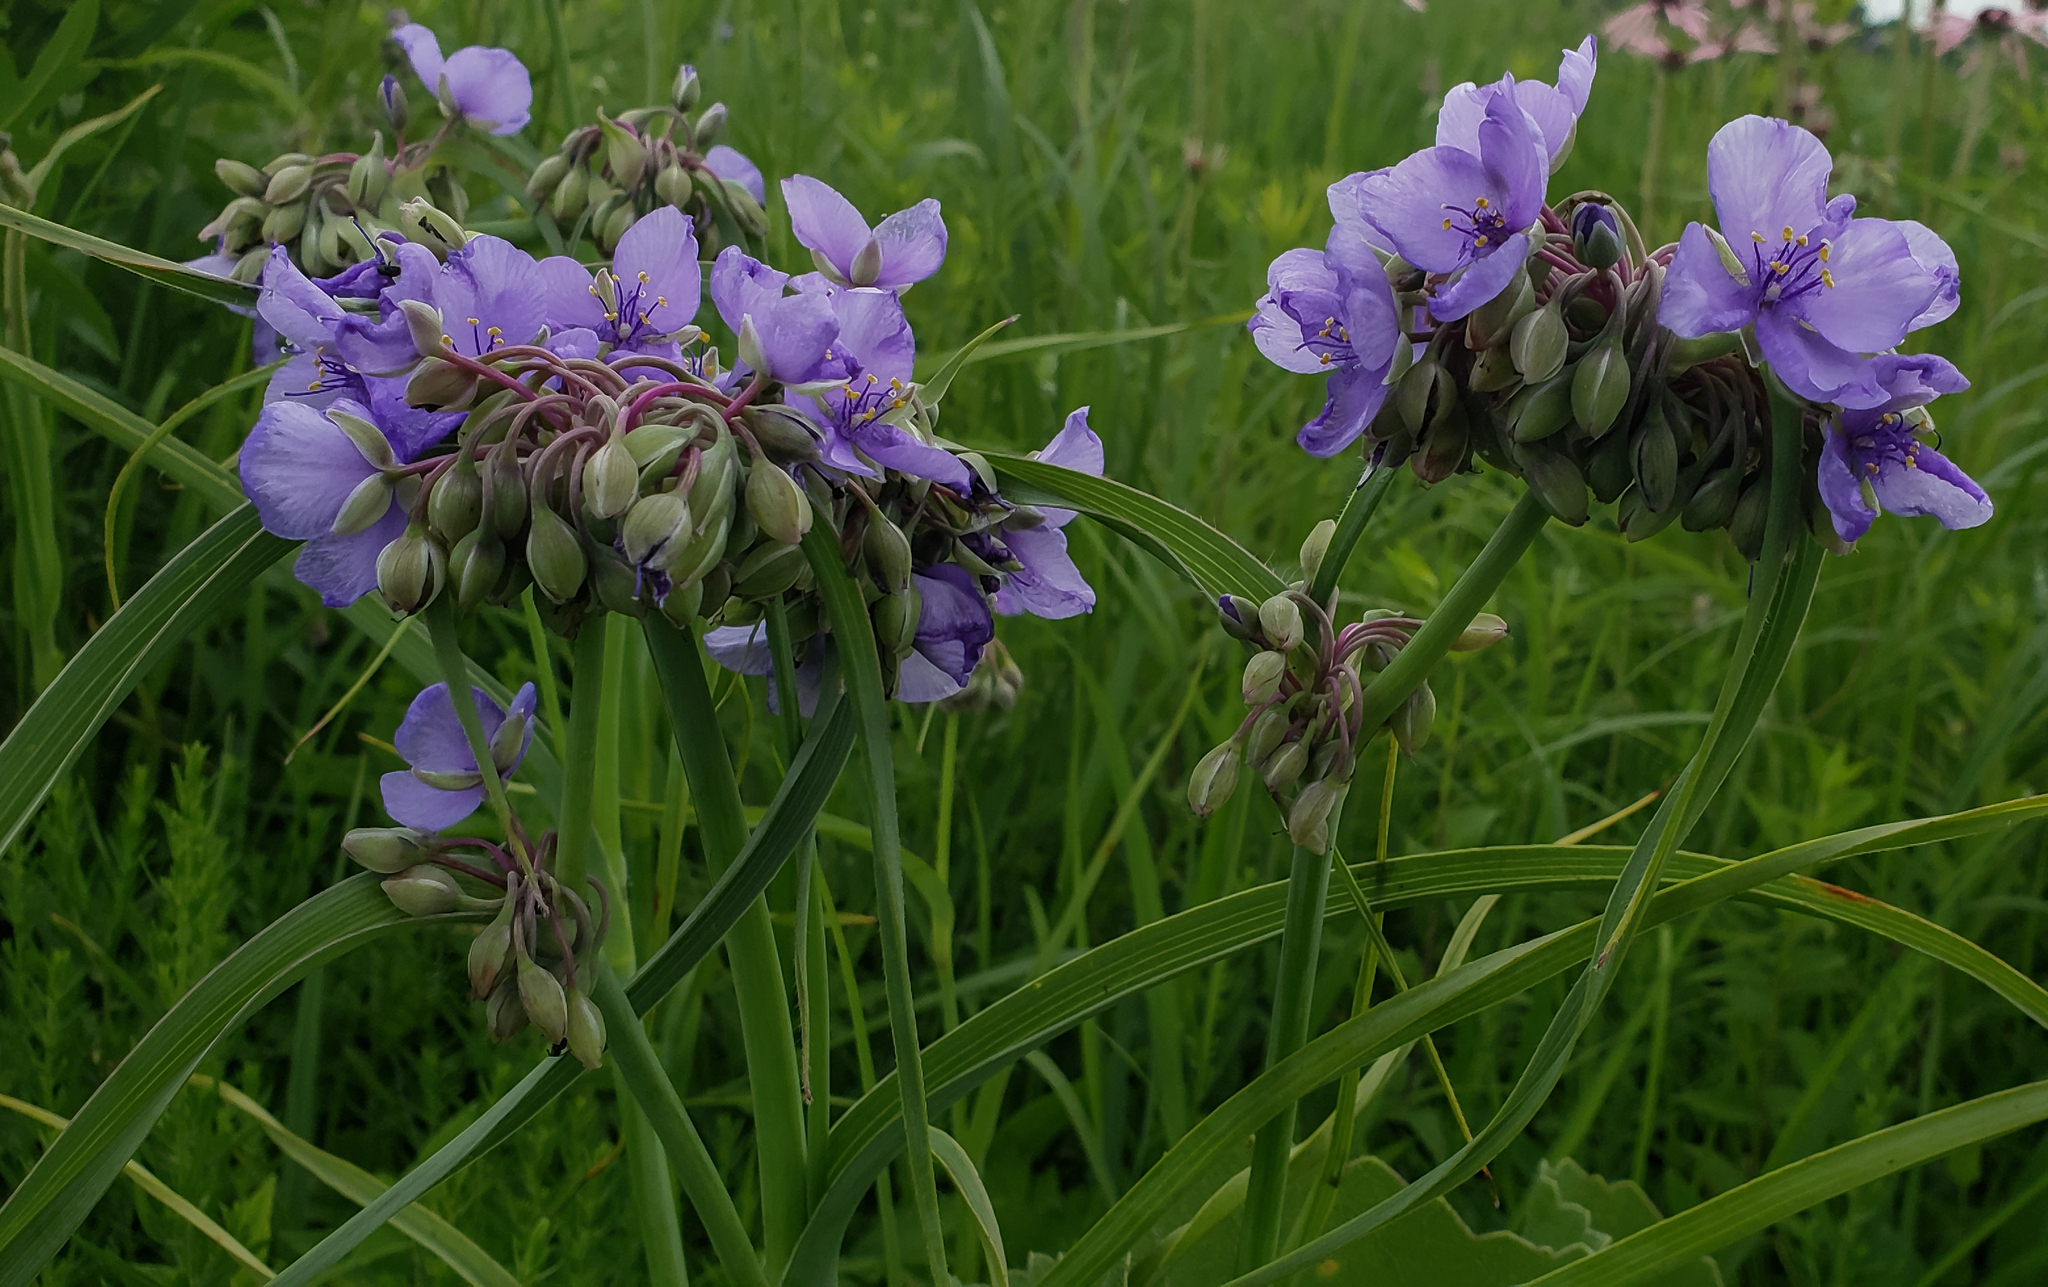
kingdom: Plantae
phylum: Tracheophyta
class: Liliopsida
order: Commelinales
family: Commelinaceae
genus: Tradescantia
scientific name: Tradescantia ohiensis
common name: Ohio spiderwort
